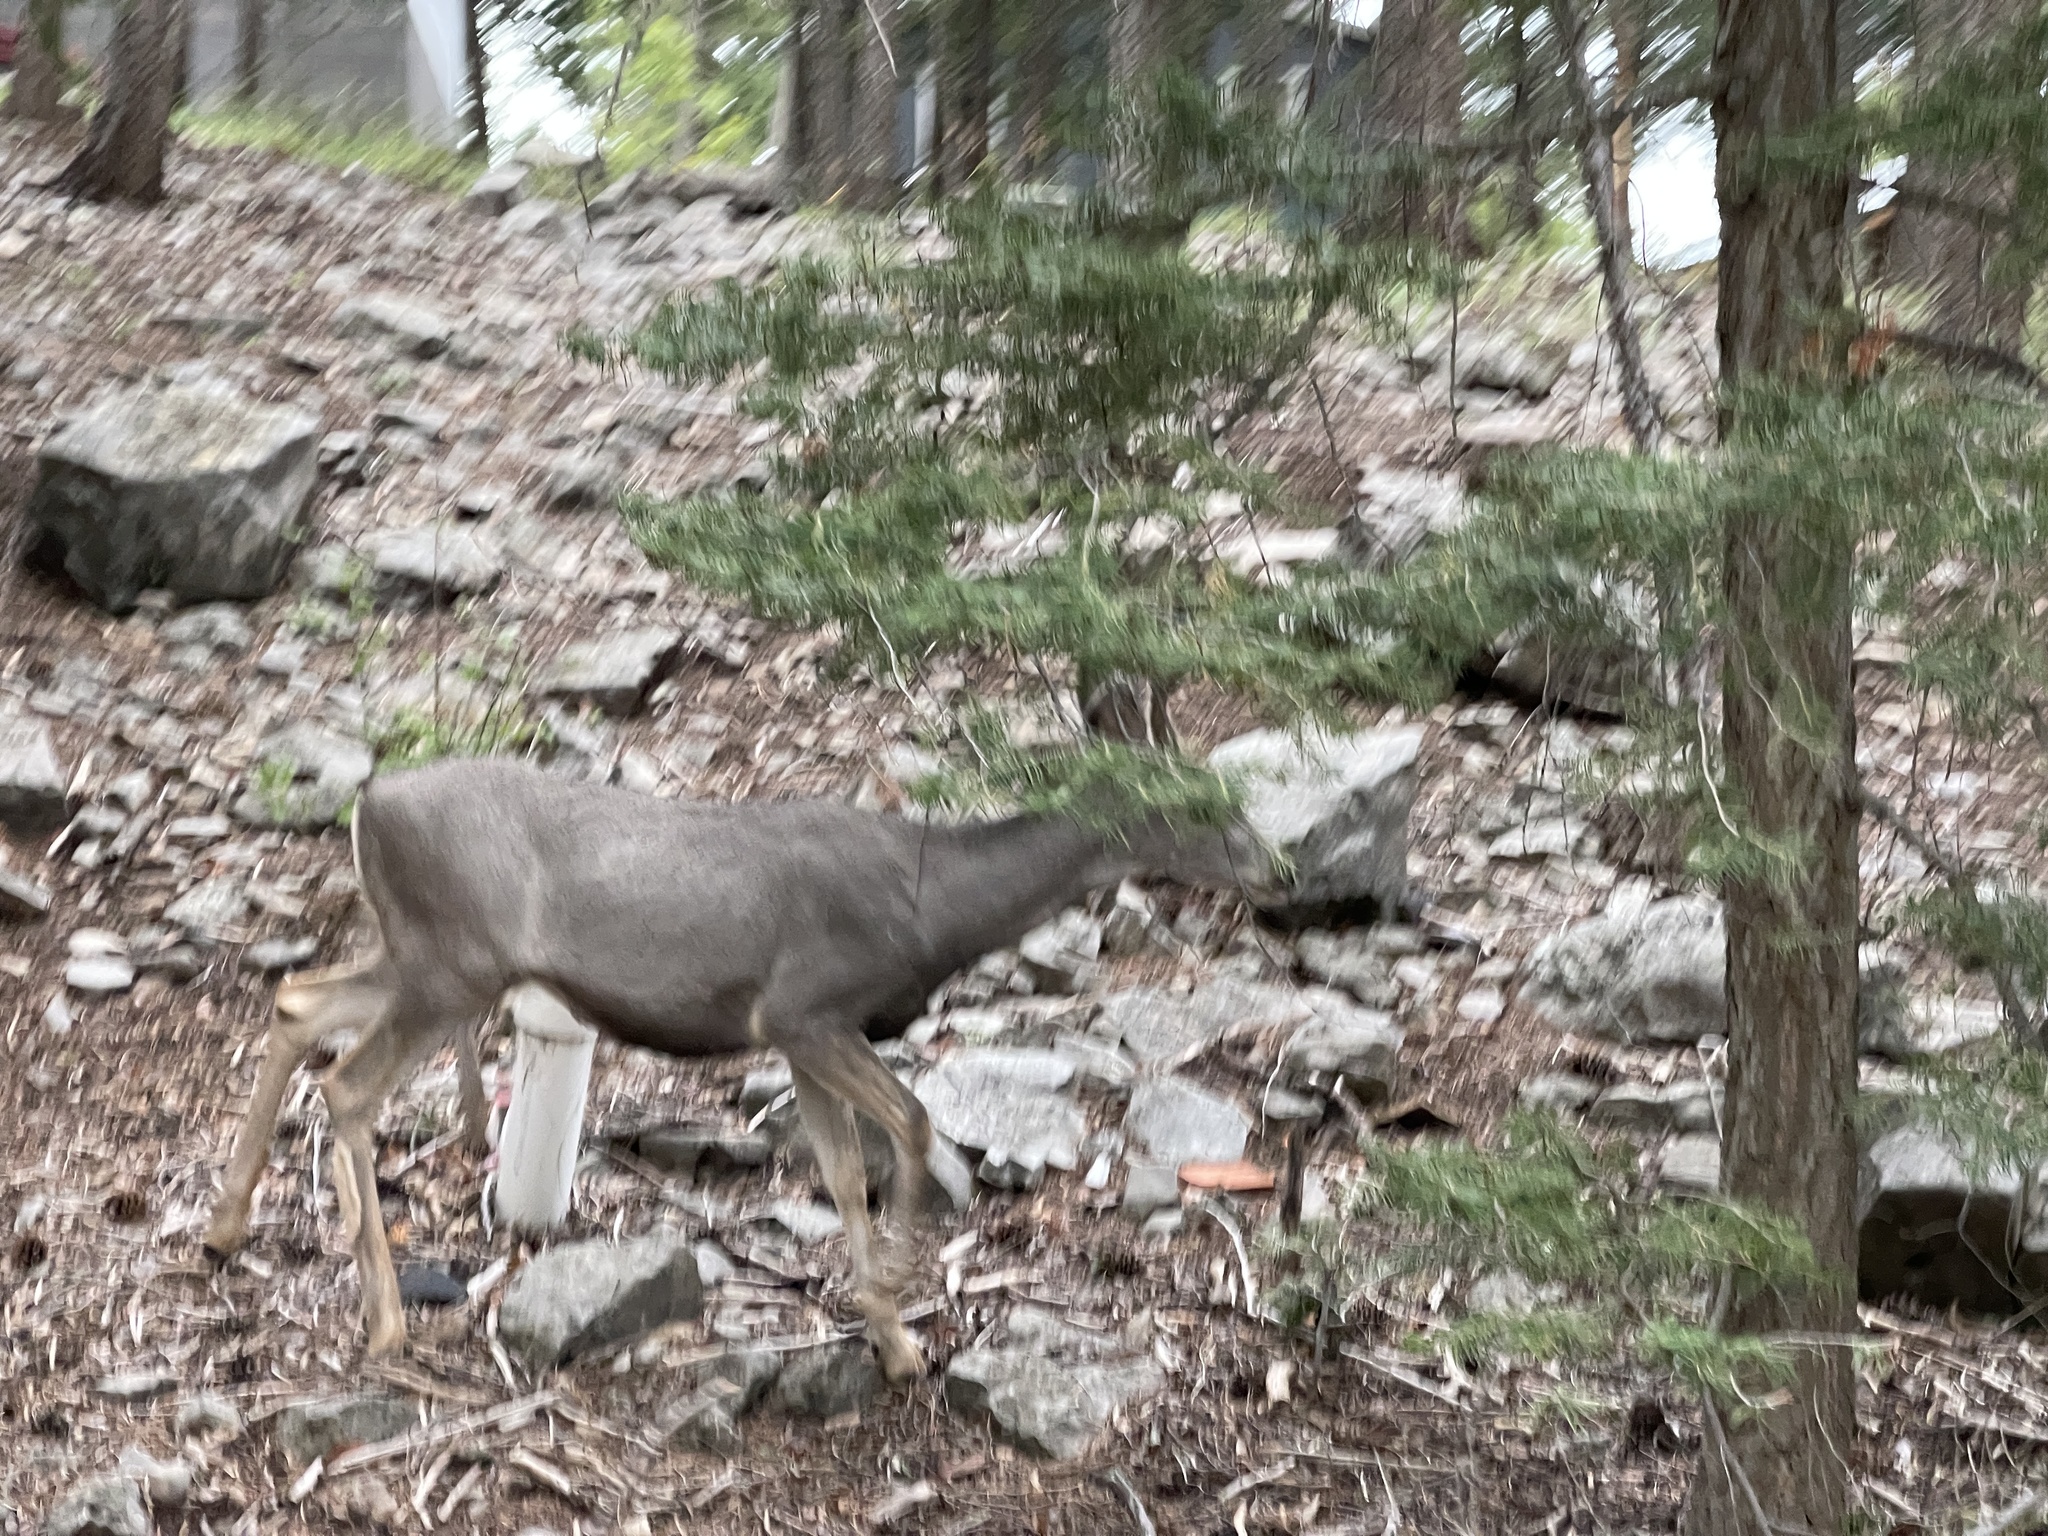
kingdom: Animalia
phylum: Chordata
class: Mammalia
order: Artiodactyla
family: Cervidae
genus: Odocoileus
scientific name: Odocoileus hemionus
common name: Mule deer
